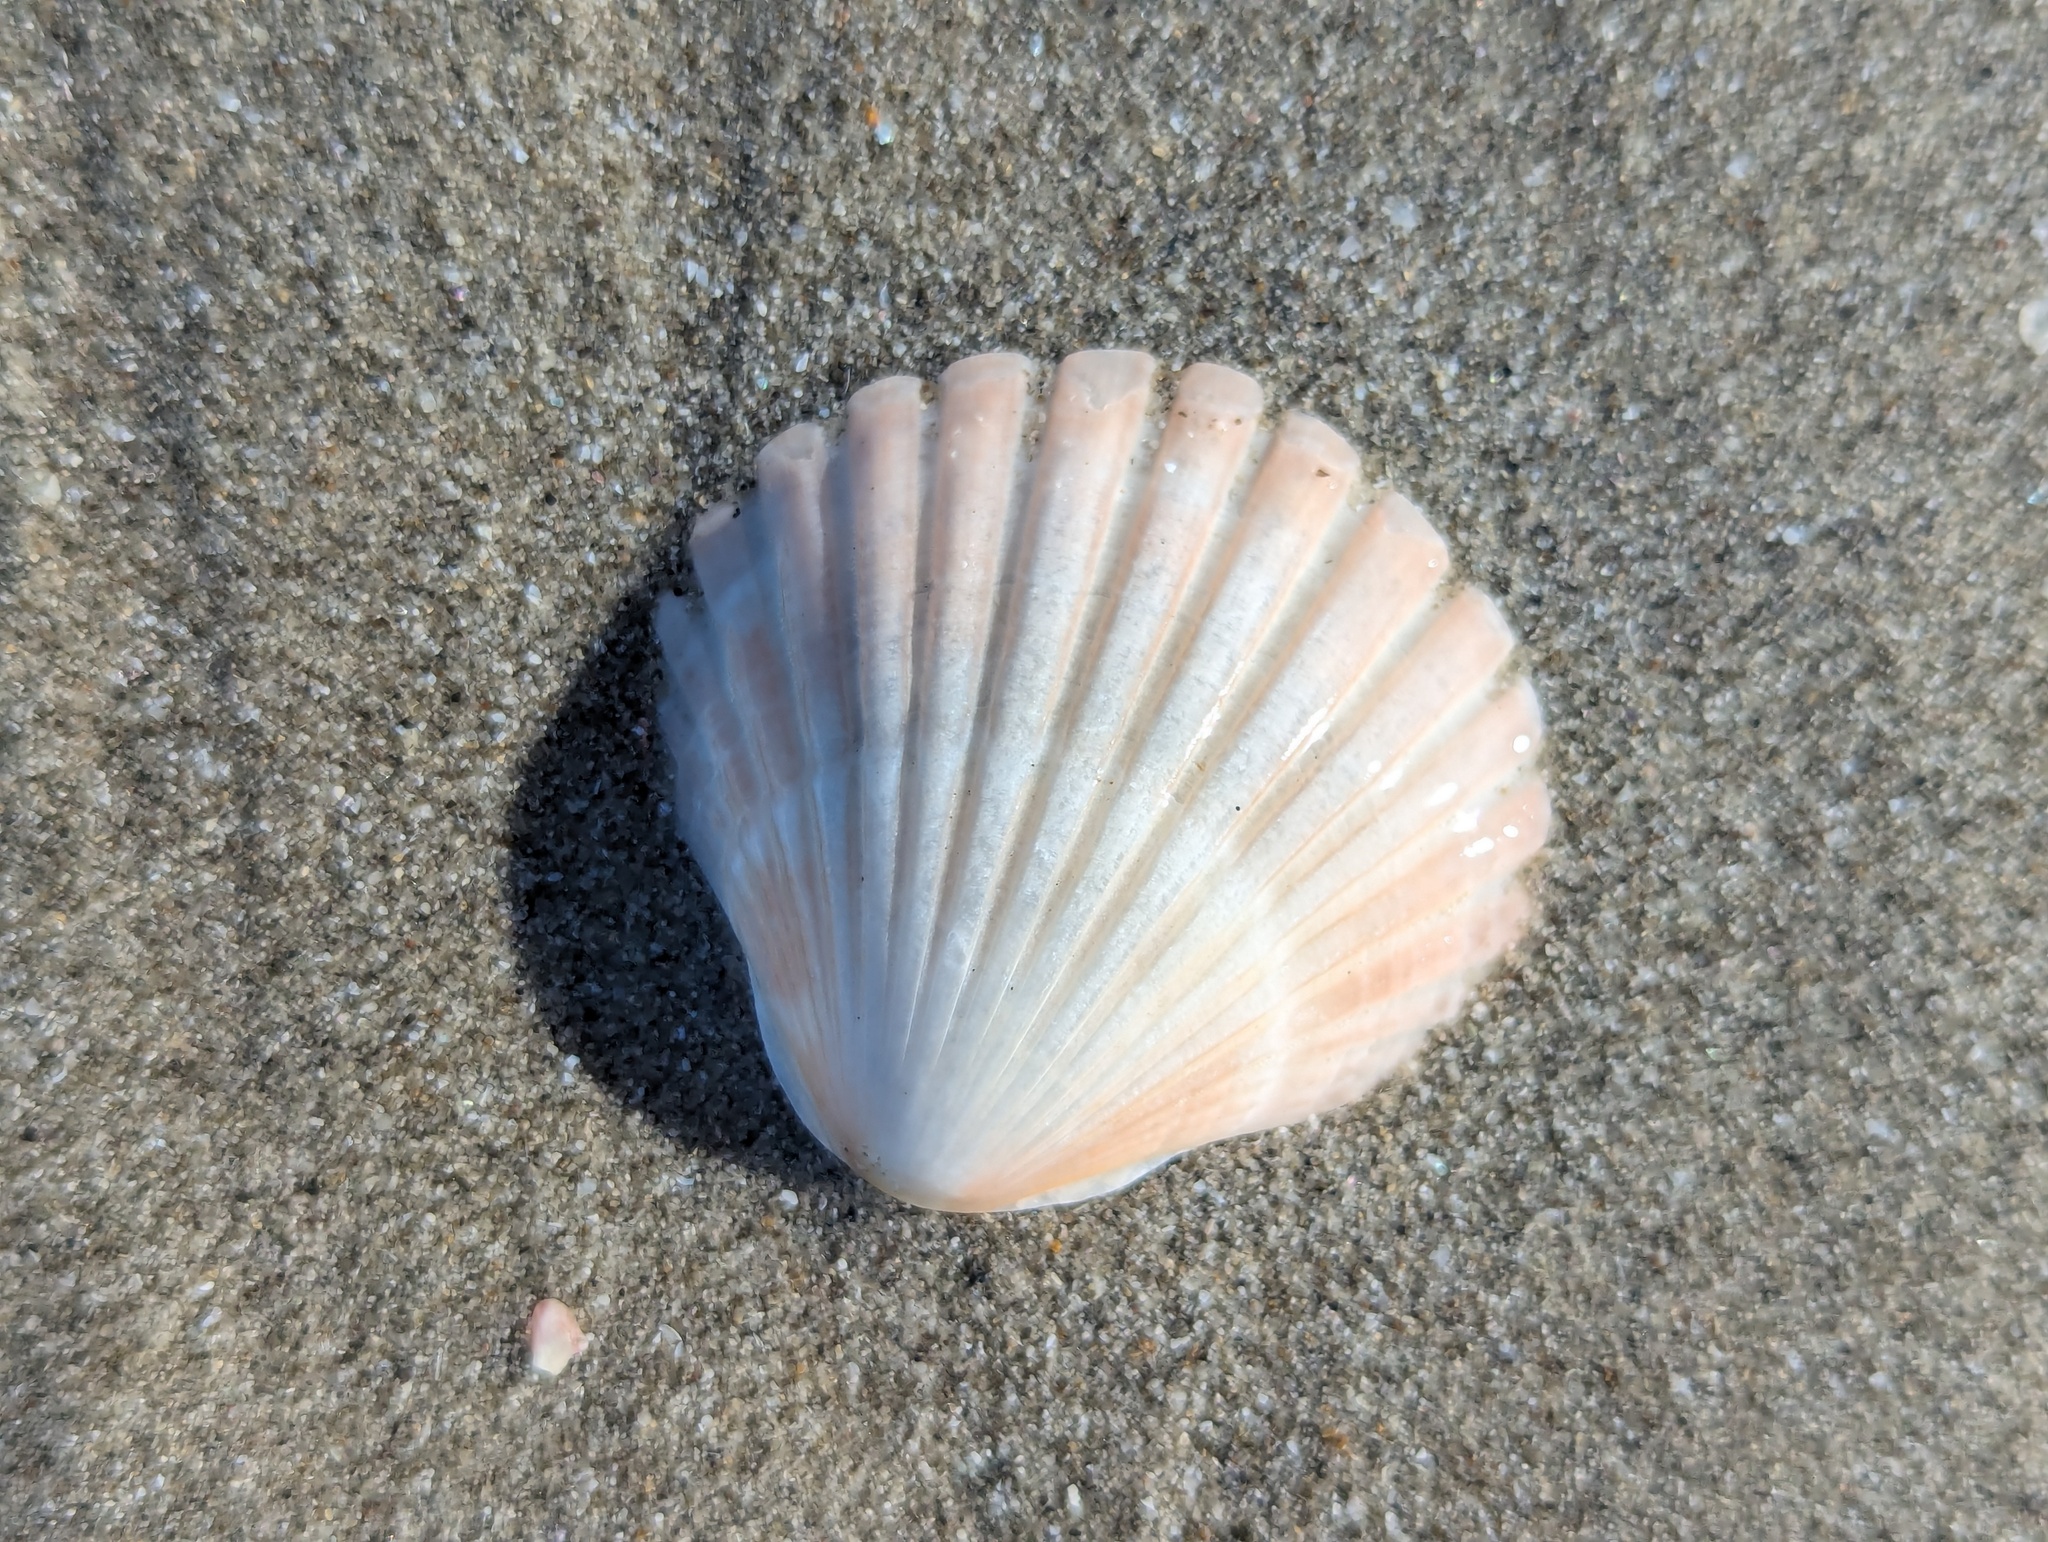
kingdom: Animalia
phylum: Mollusca
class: Bivalvia
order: Pectinida
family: Pectinidae
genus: Pecten
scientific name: Pecten novaezelandiae
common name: New zealand scallop
